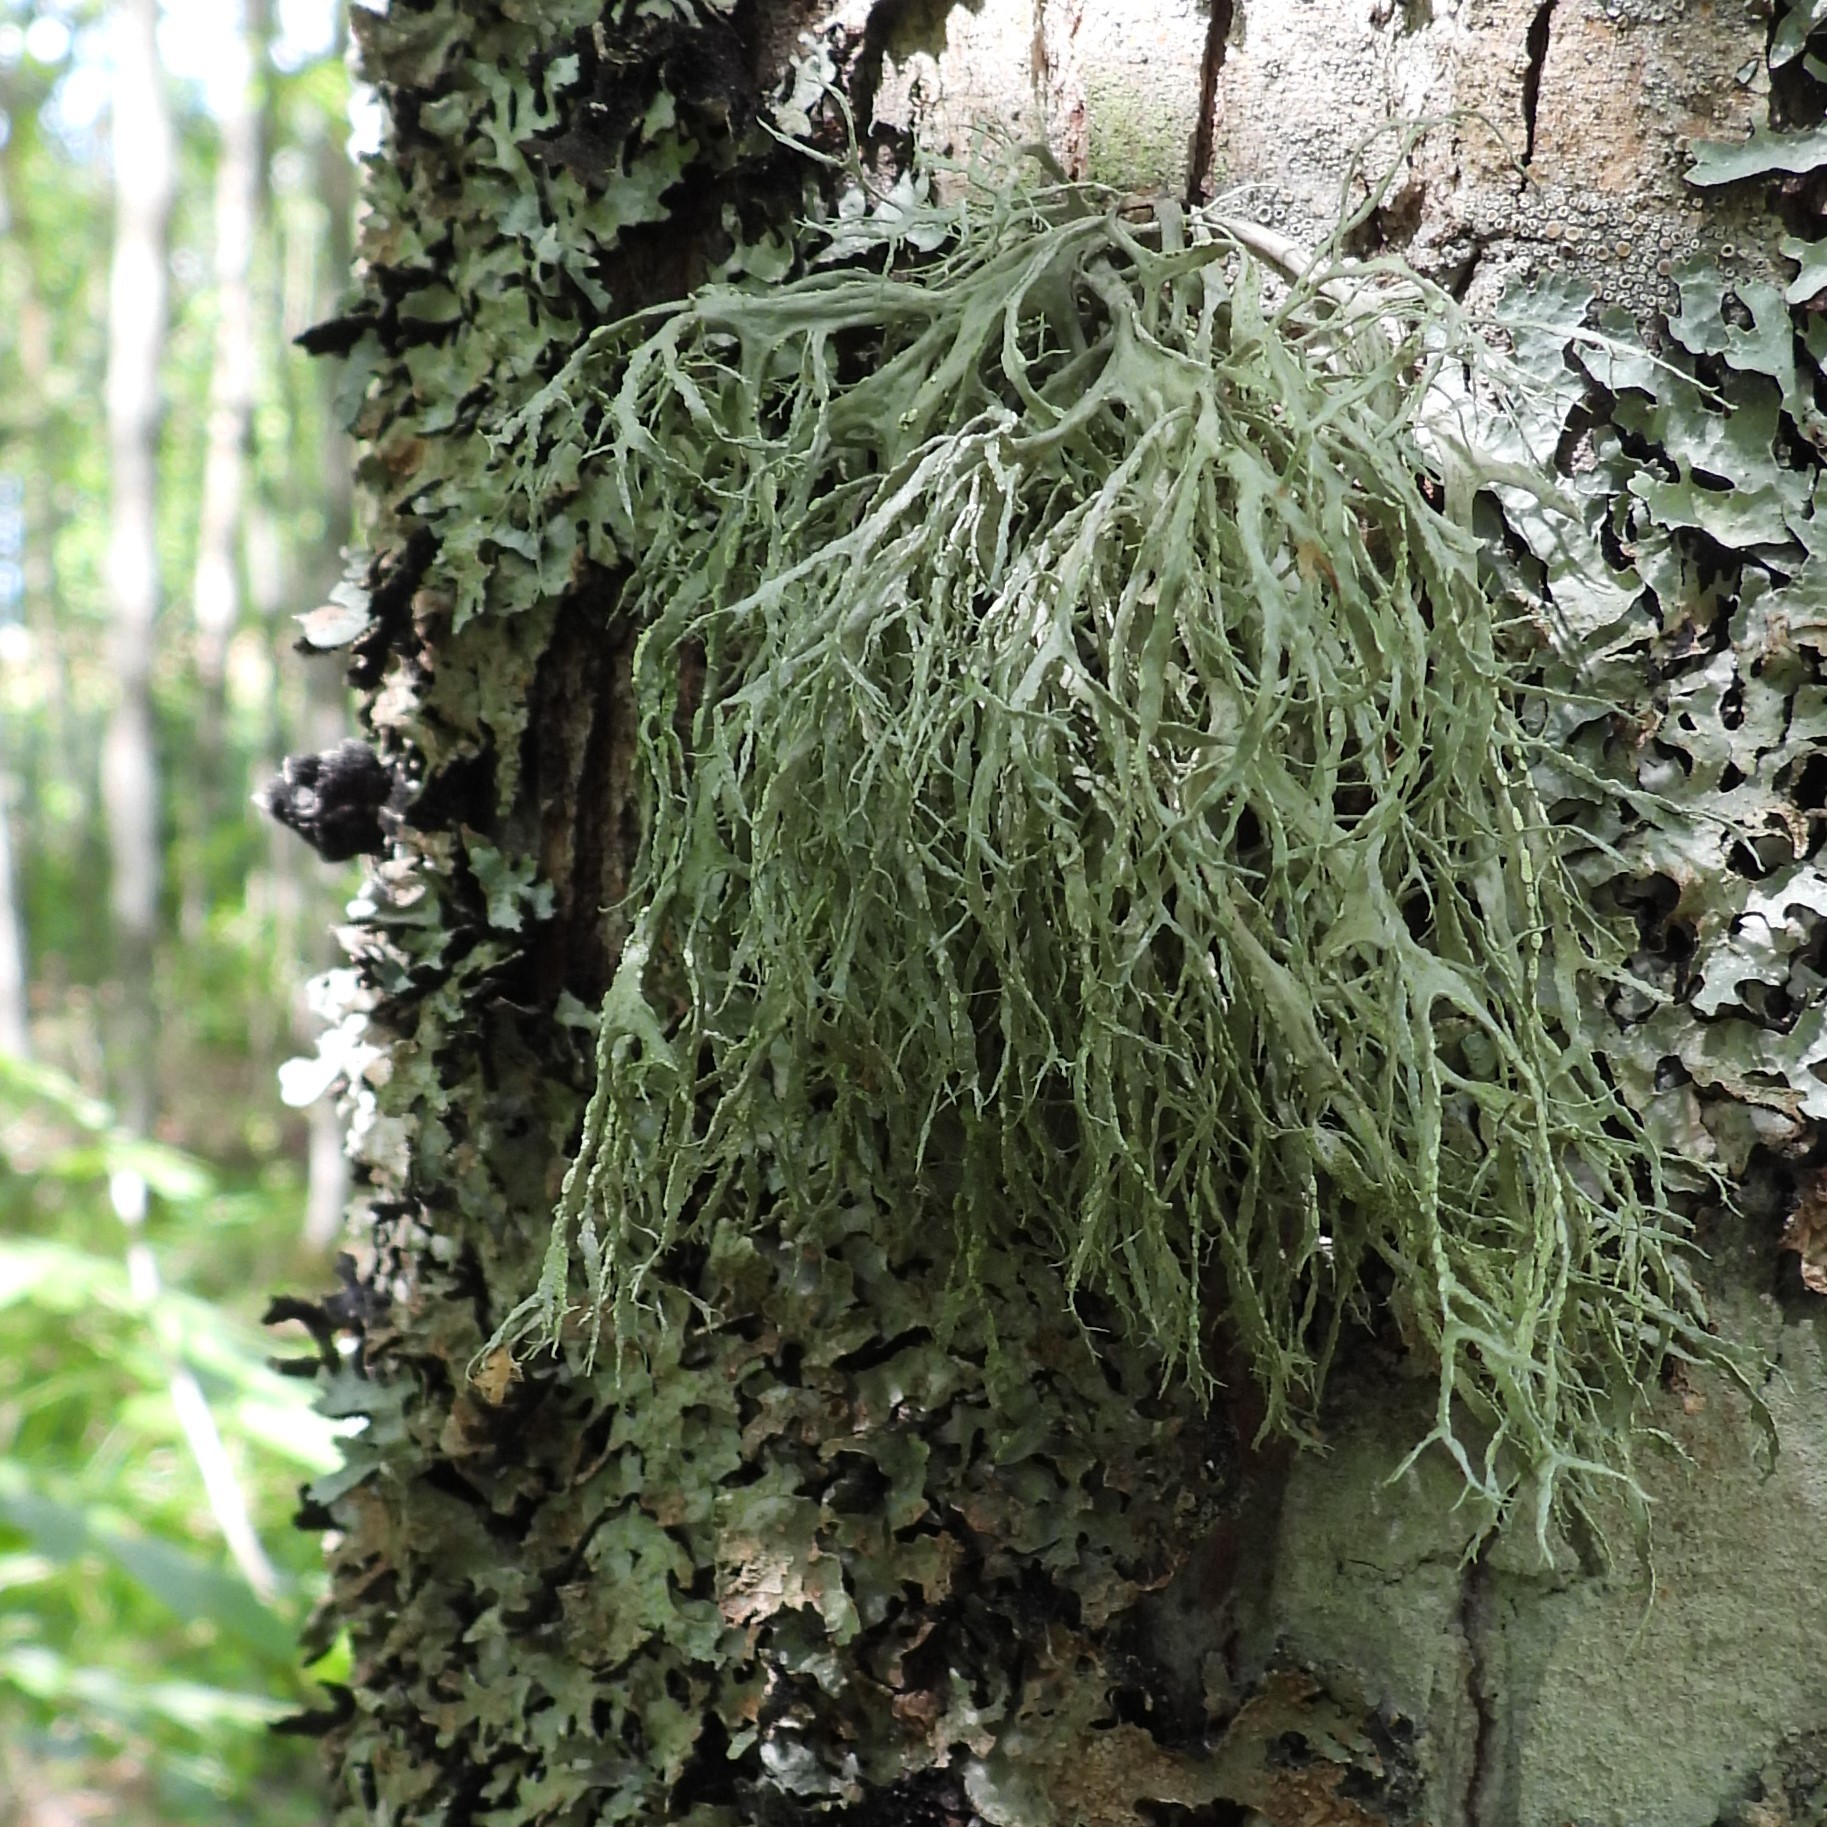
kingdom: Fungi
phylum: Ascomycota
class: Lecanoromycetes
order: Lecanorales
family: Ramalinaceae
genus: Ramalina
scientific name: Ramalina farinacea
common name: Farinose cartilage lichen
